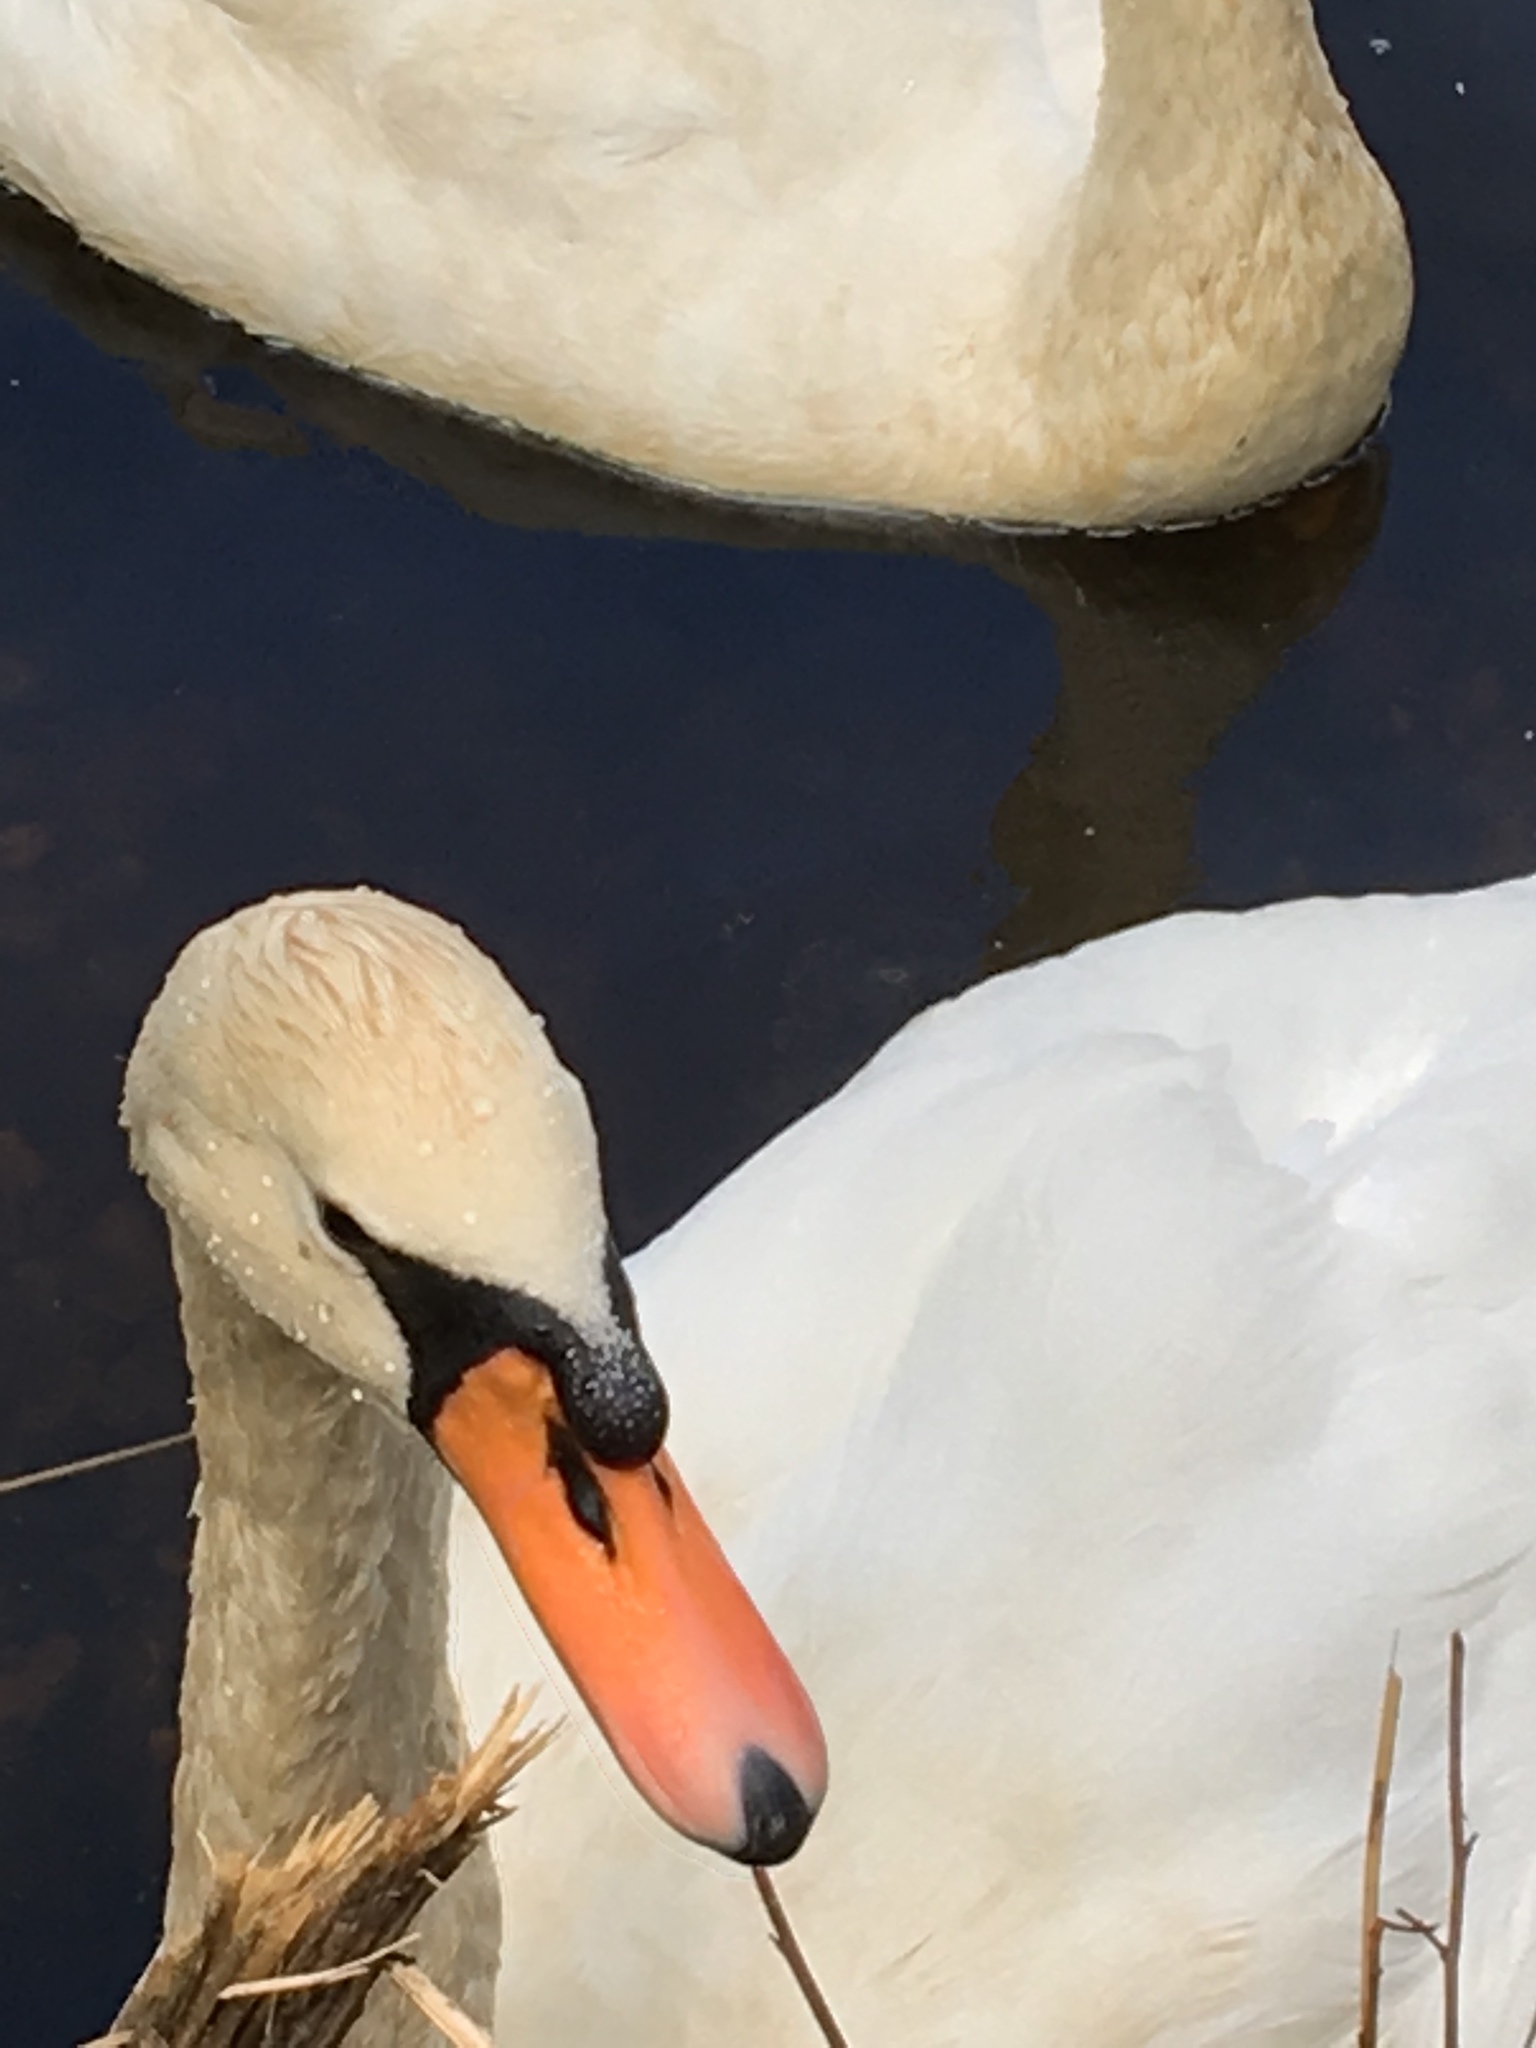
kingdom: Animalia
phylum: Chordata
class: Aves
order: Anseriformes
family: Anatidae
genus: Cygnus
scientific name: Cygnus olor
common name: Mute swan
